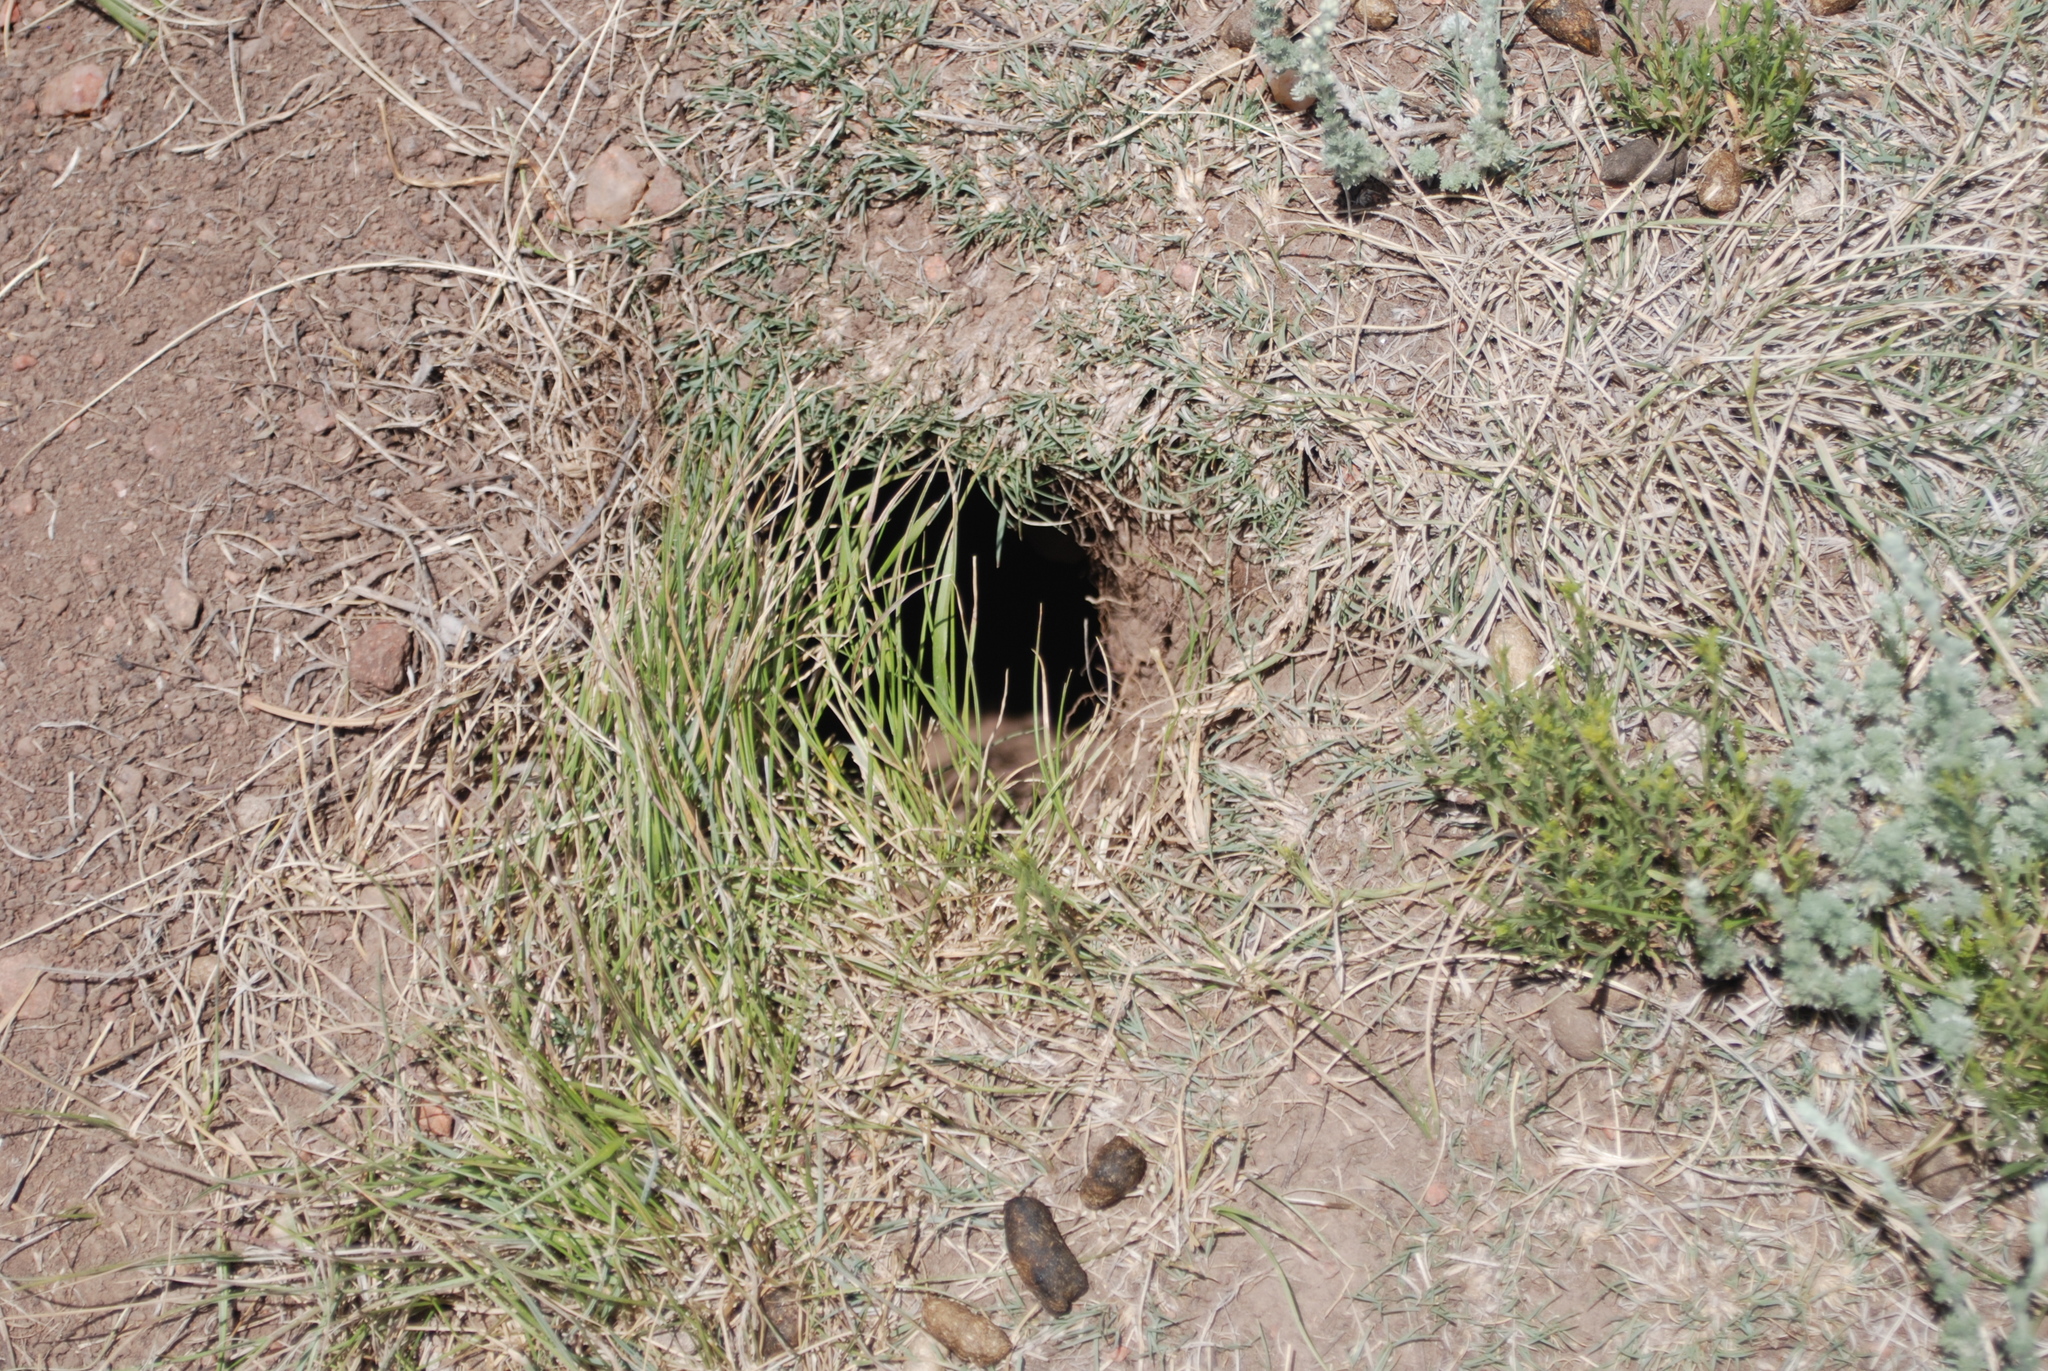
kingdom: Animalia
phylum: Chordata
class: Mammalia
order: Rodentia
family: Sciuridae
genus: Cynomys
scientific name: Cynomys gunnisoni
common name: Gunnison's prairie dog
